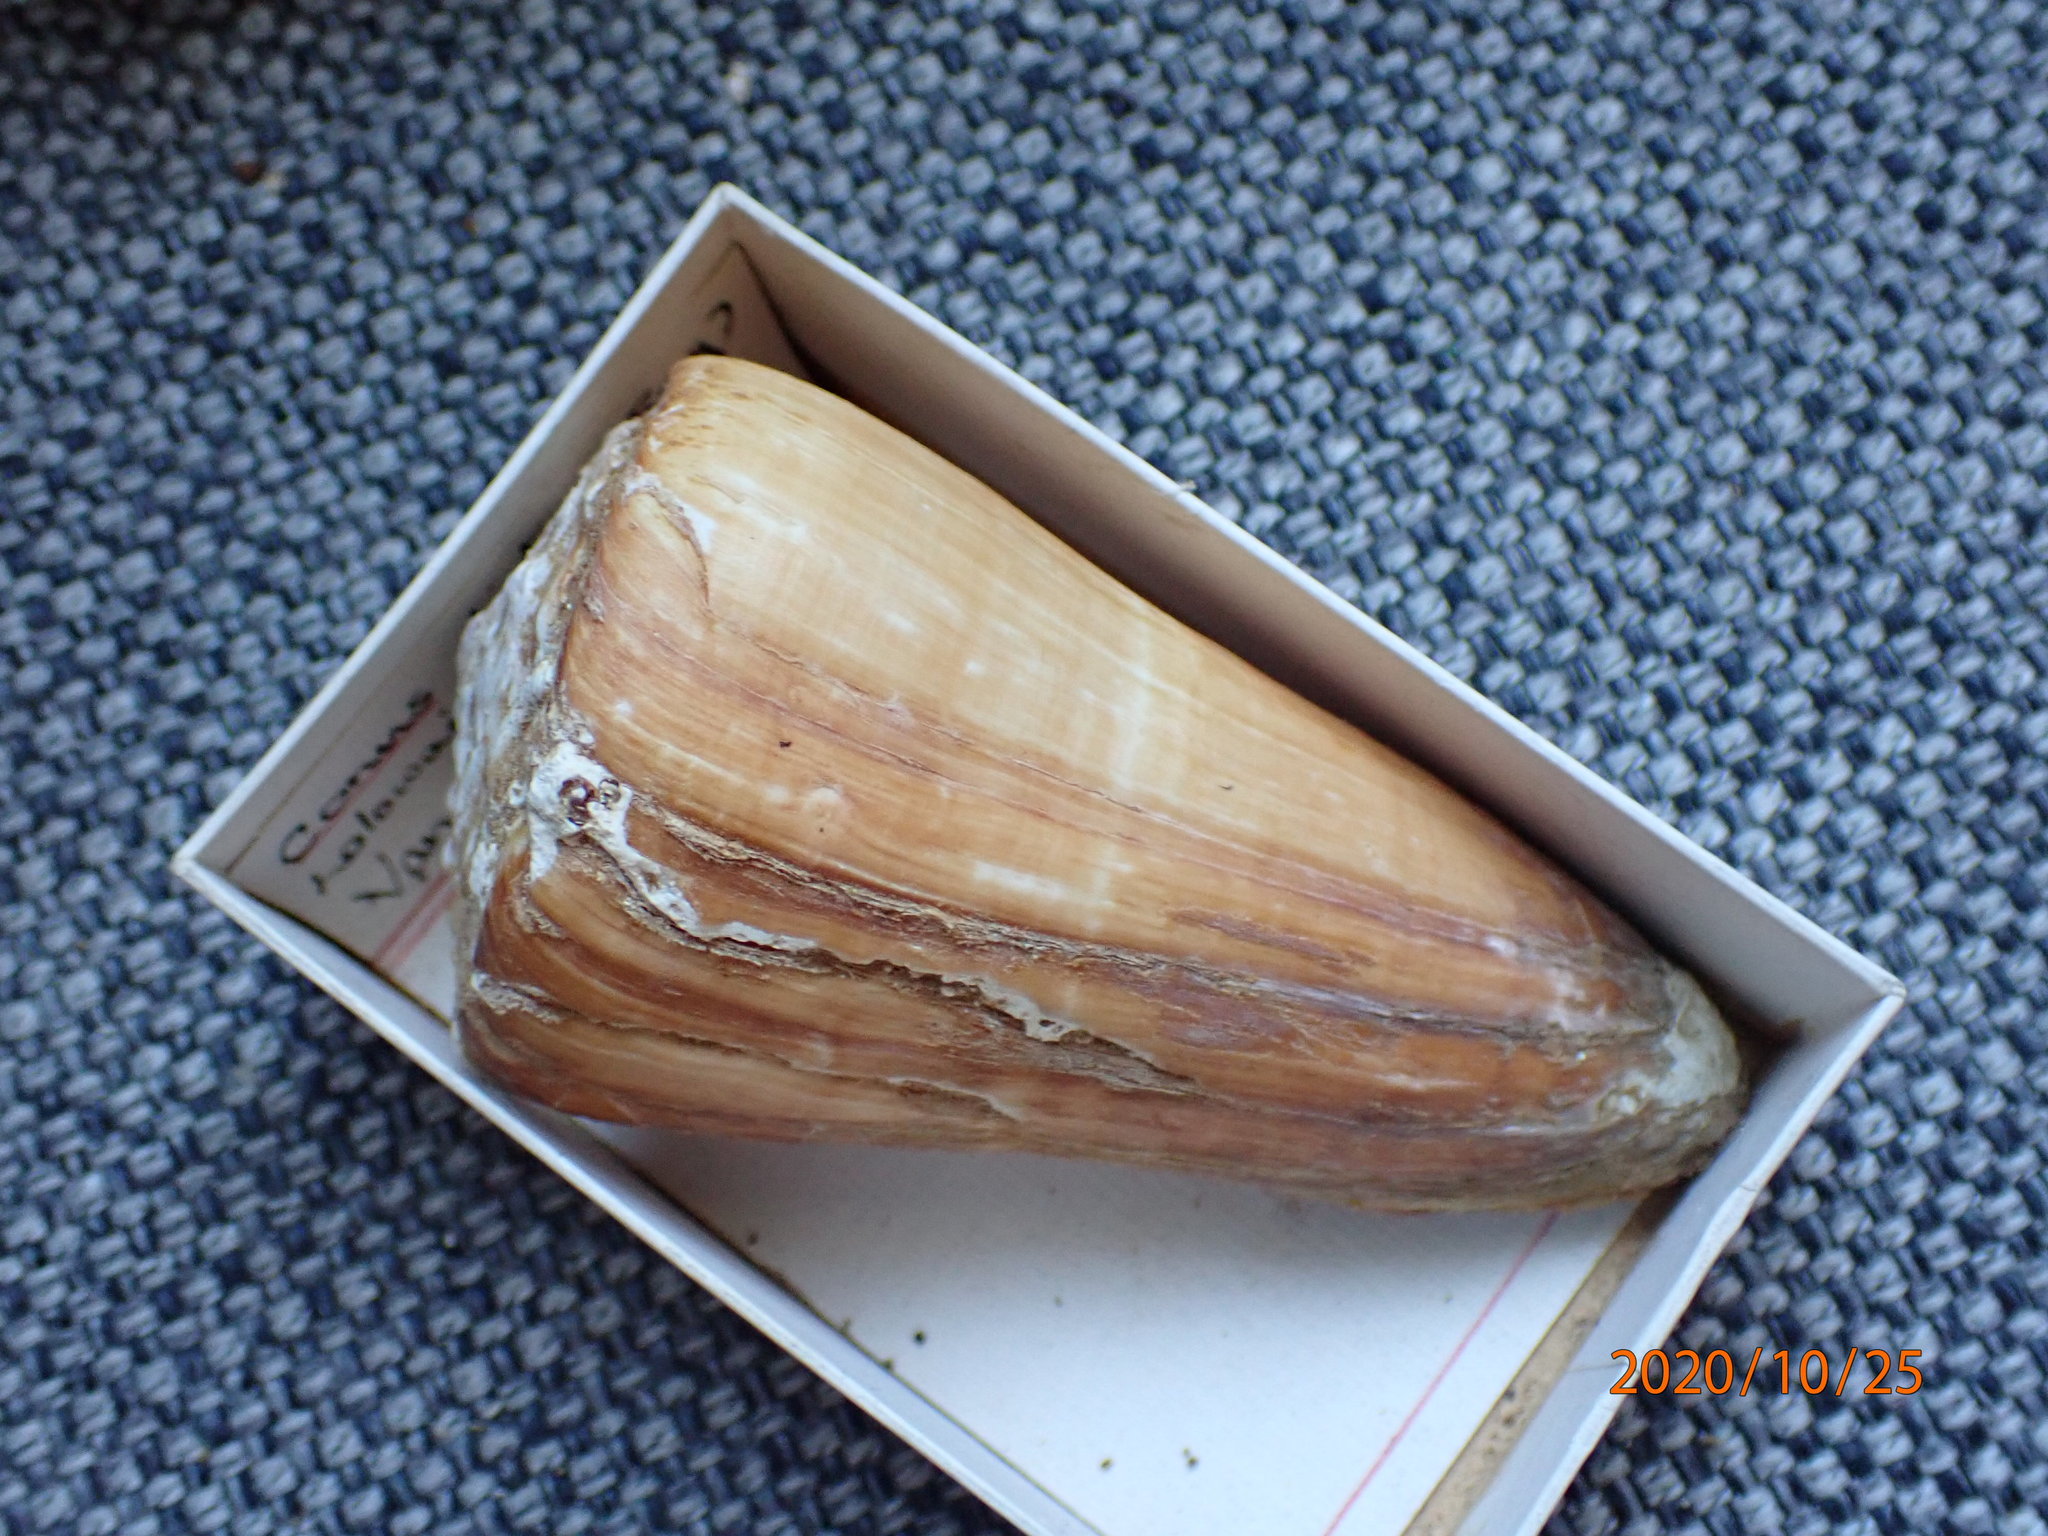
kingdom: Animalia
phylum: Mollusca
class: Gastropoda
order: Neogastropoda
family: Conidae
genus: Conus
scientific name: Conus distans
